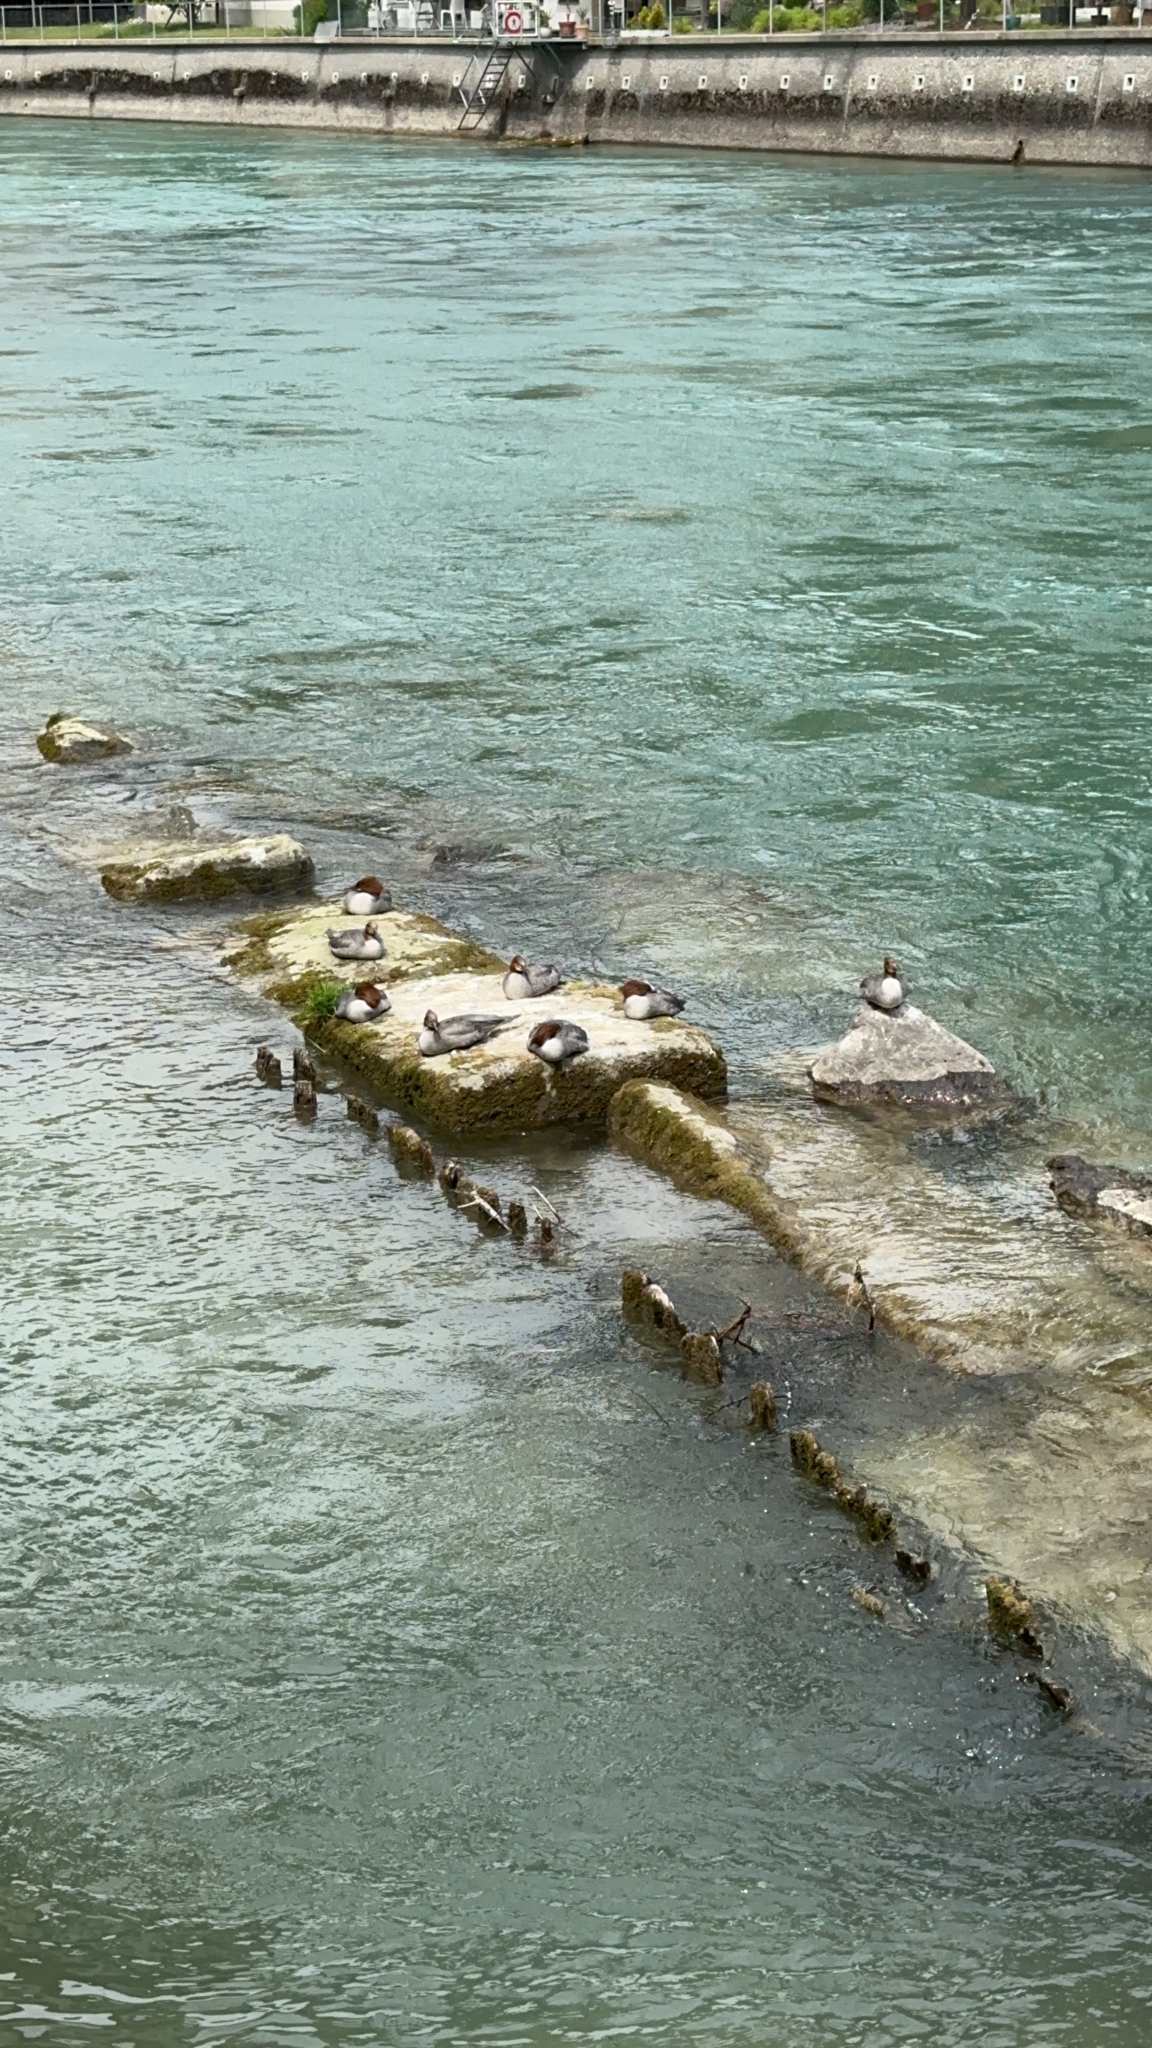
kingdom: Animalia
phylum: Chordata
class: Aves
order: Anseriformes
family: Anatidae
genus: Mergus
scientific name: Mergus merganser
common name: Common merganser
